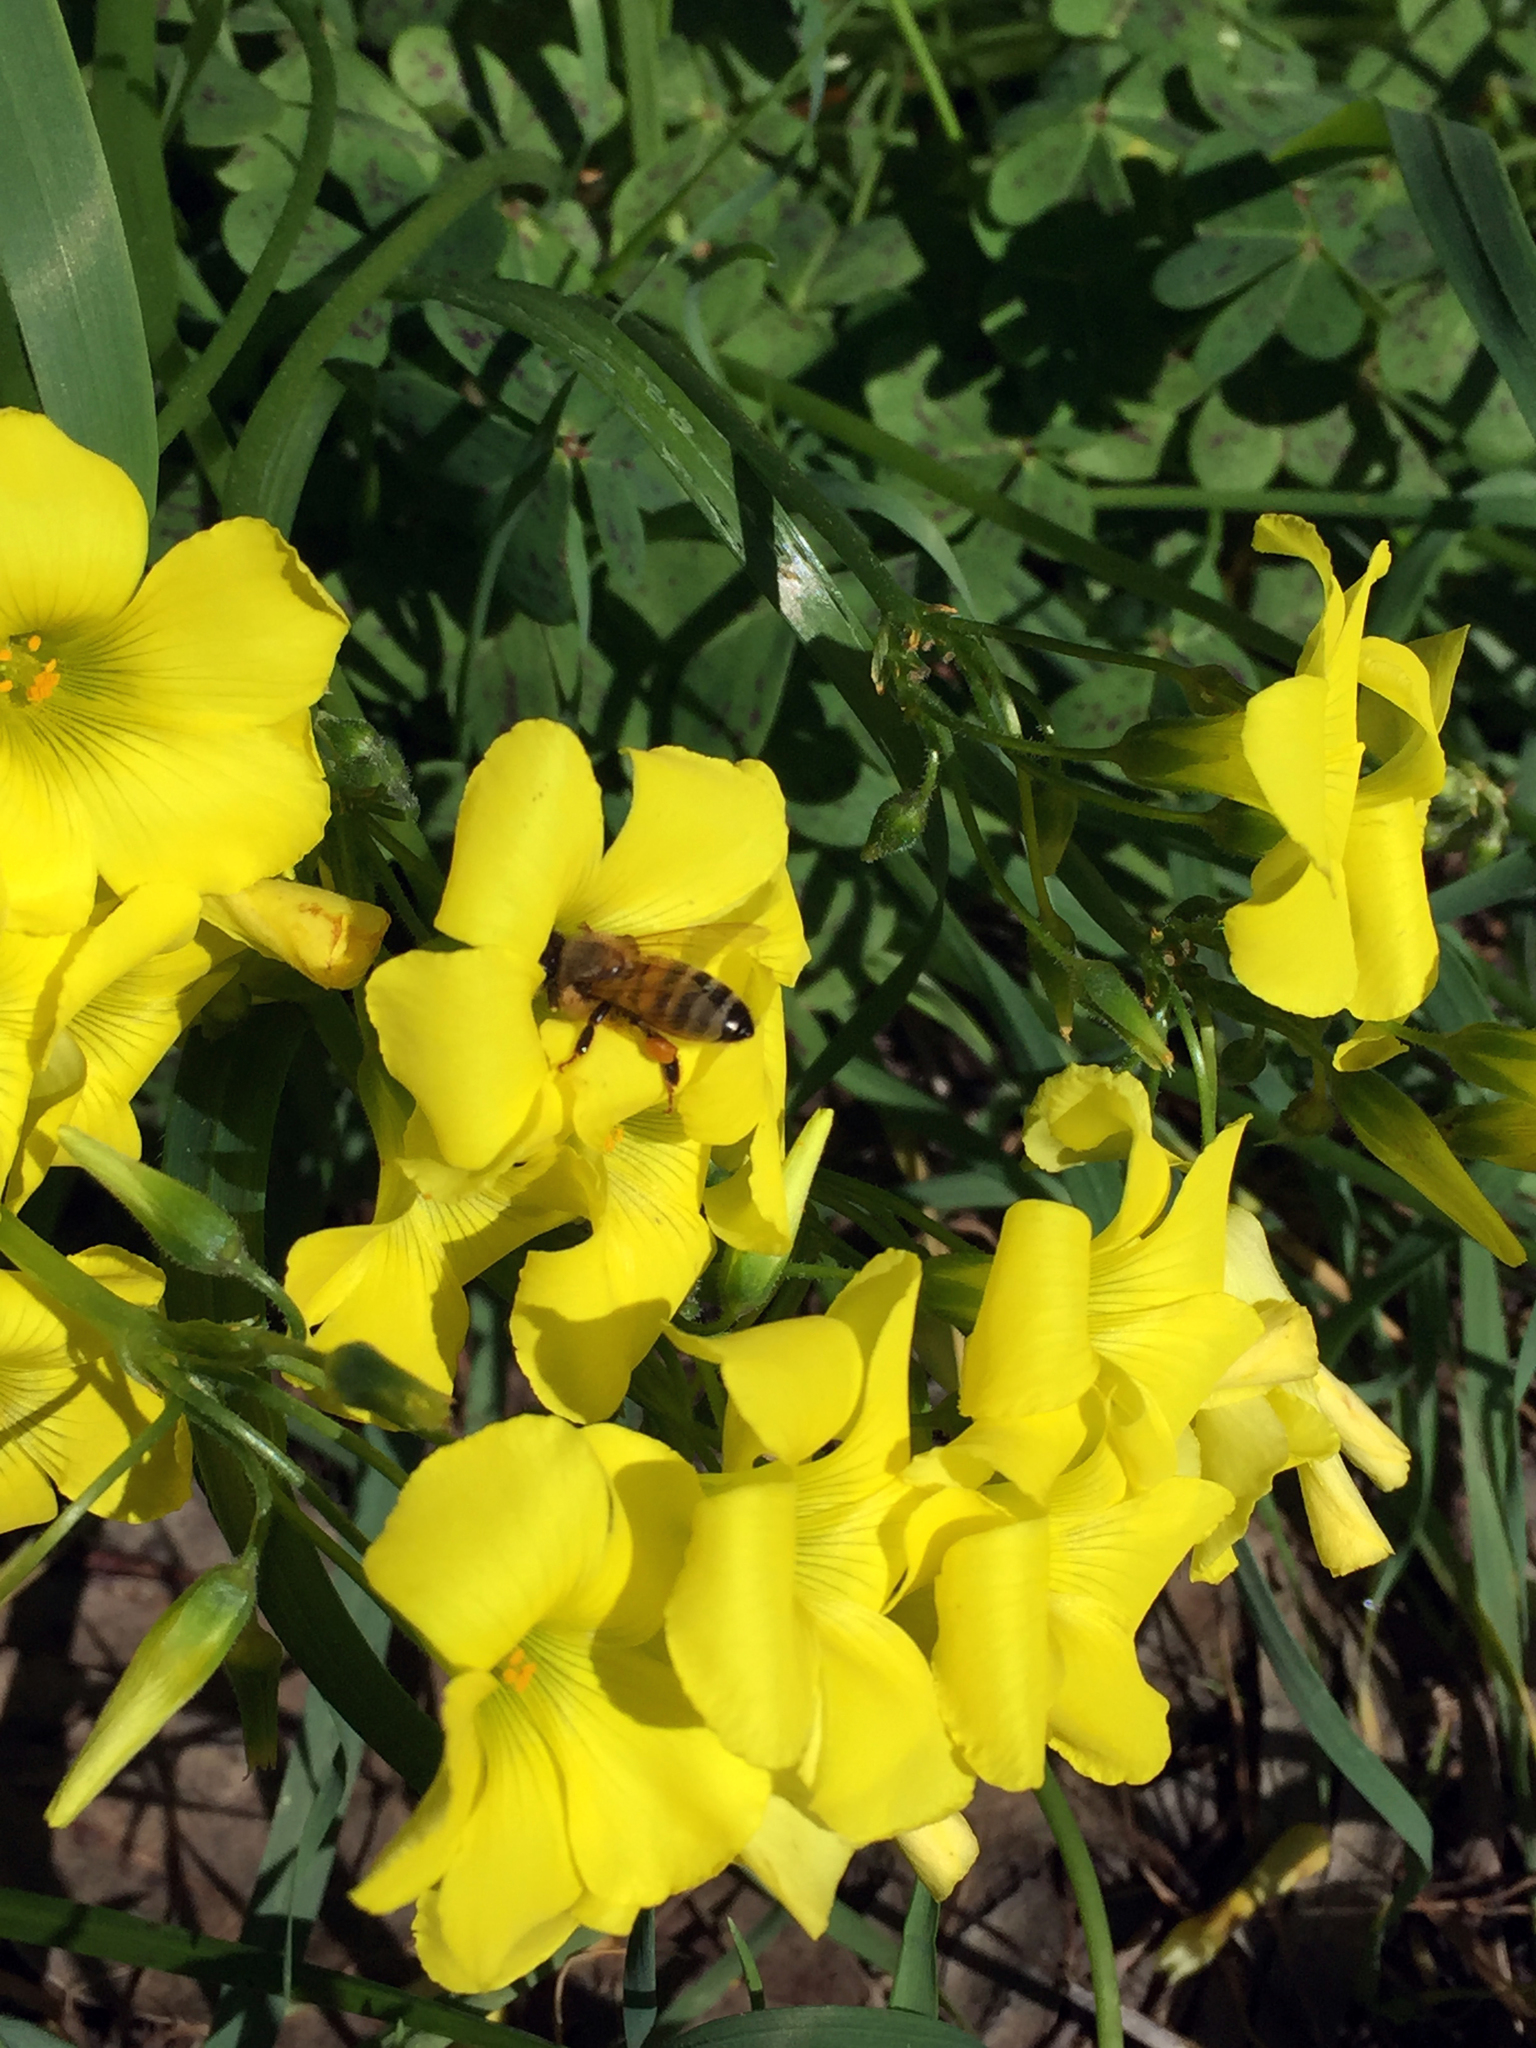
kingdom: Animalia
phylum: Arthropoda
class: Insecta
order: Hymenoptera
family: Apidae
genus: Apis
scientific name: Apis mellifera
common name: Honey bee
